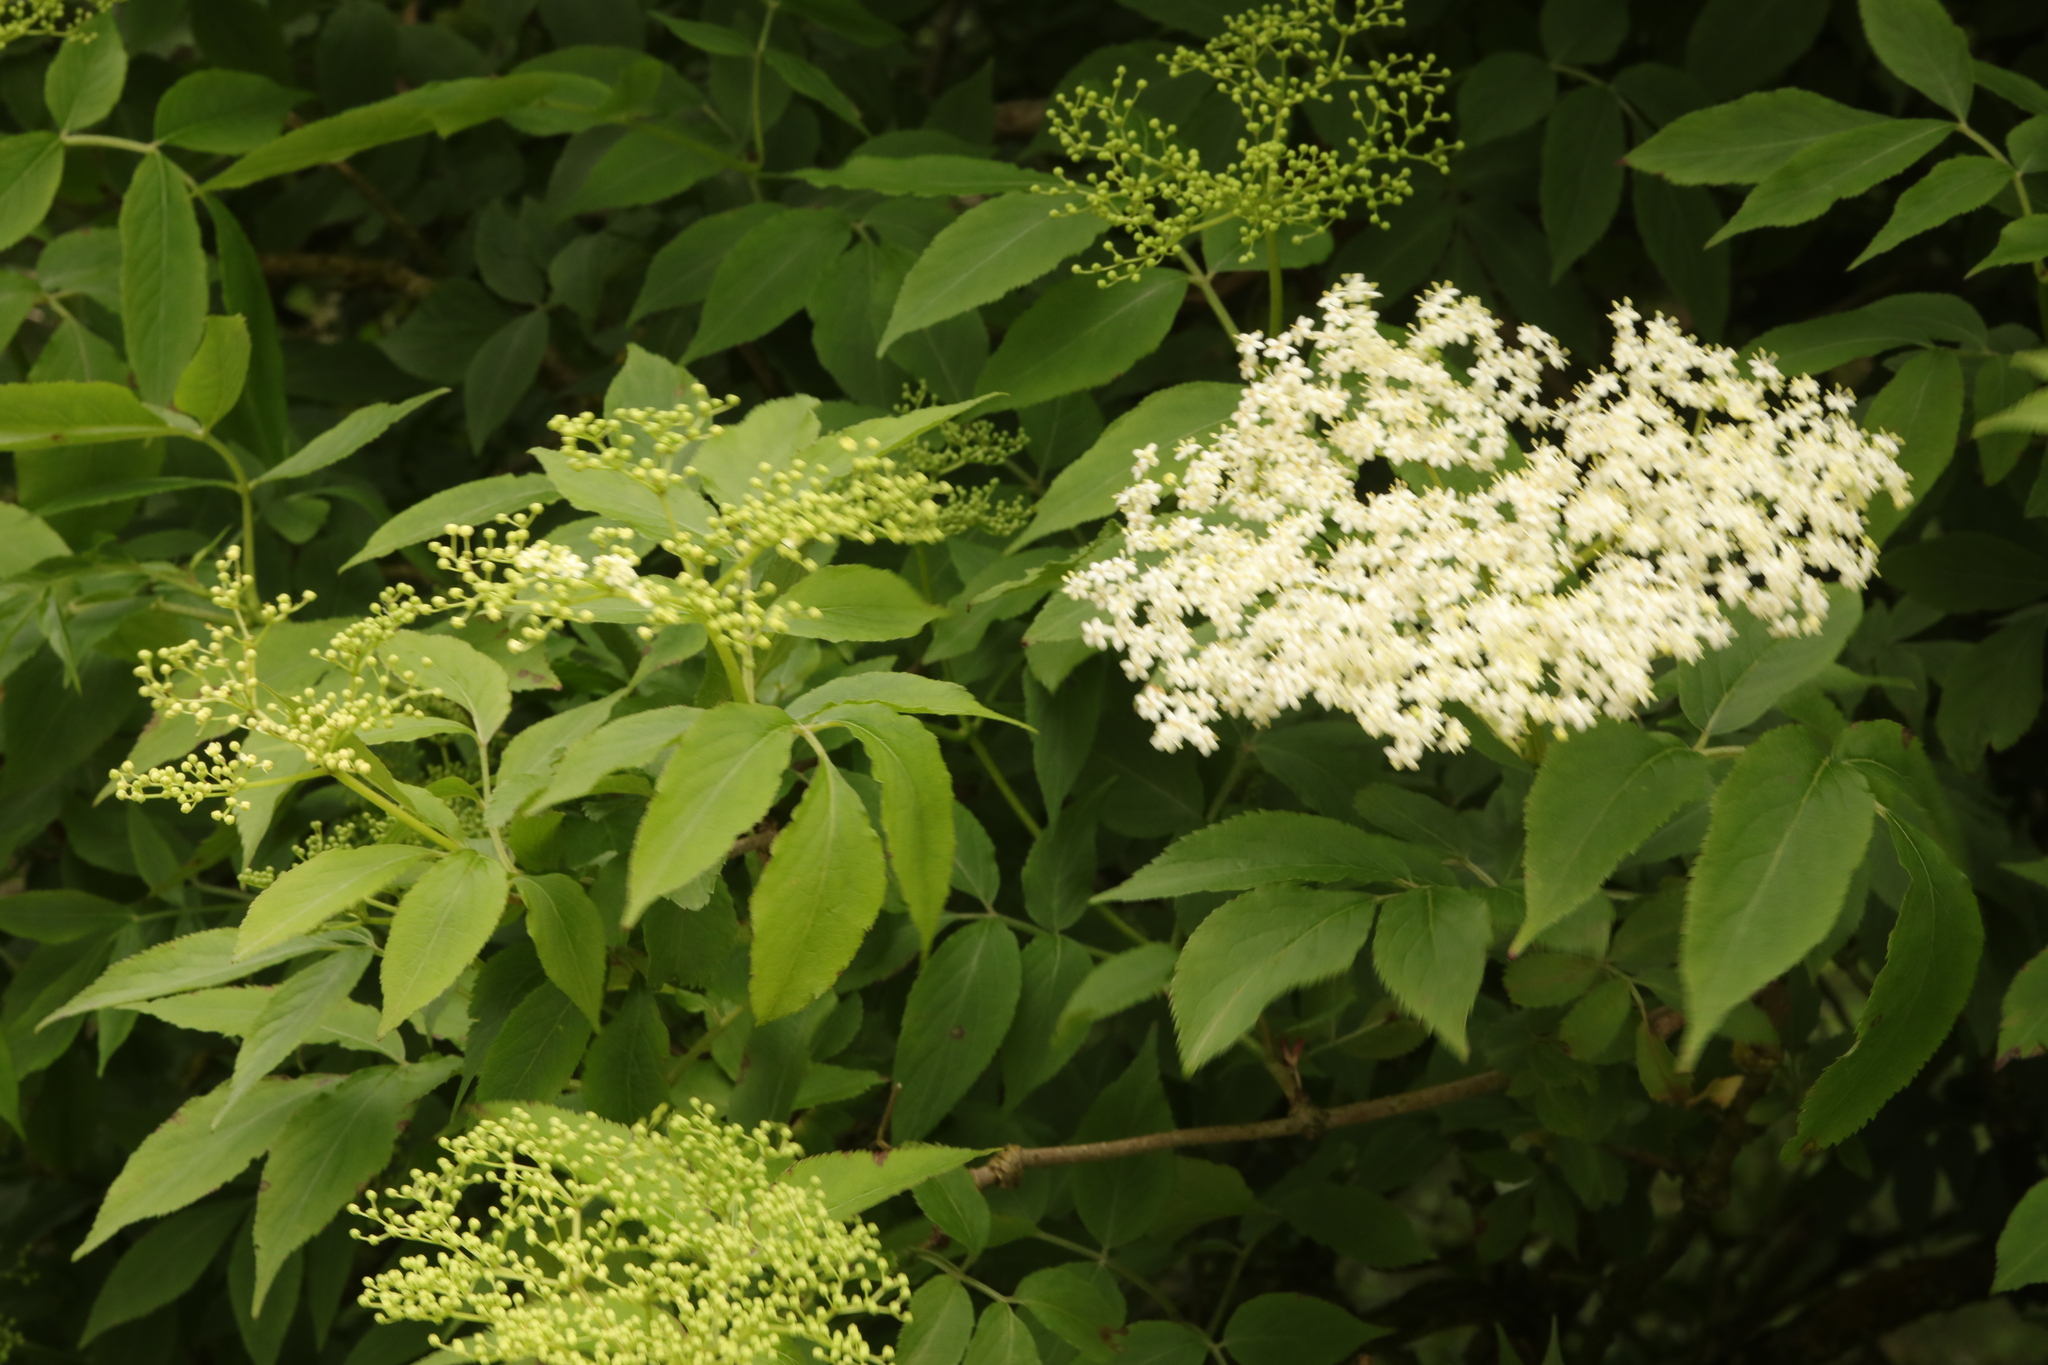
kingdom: Plantae
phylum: Tracheophyta
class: Magnoliopsida
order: Dipsacales
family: Viburnaceae
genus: Sambucus
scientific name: Sambucus nigra
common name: Elder
